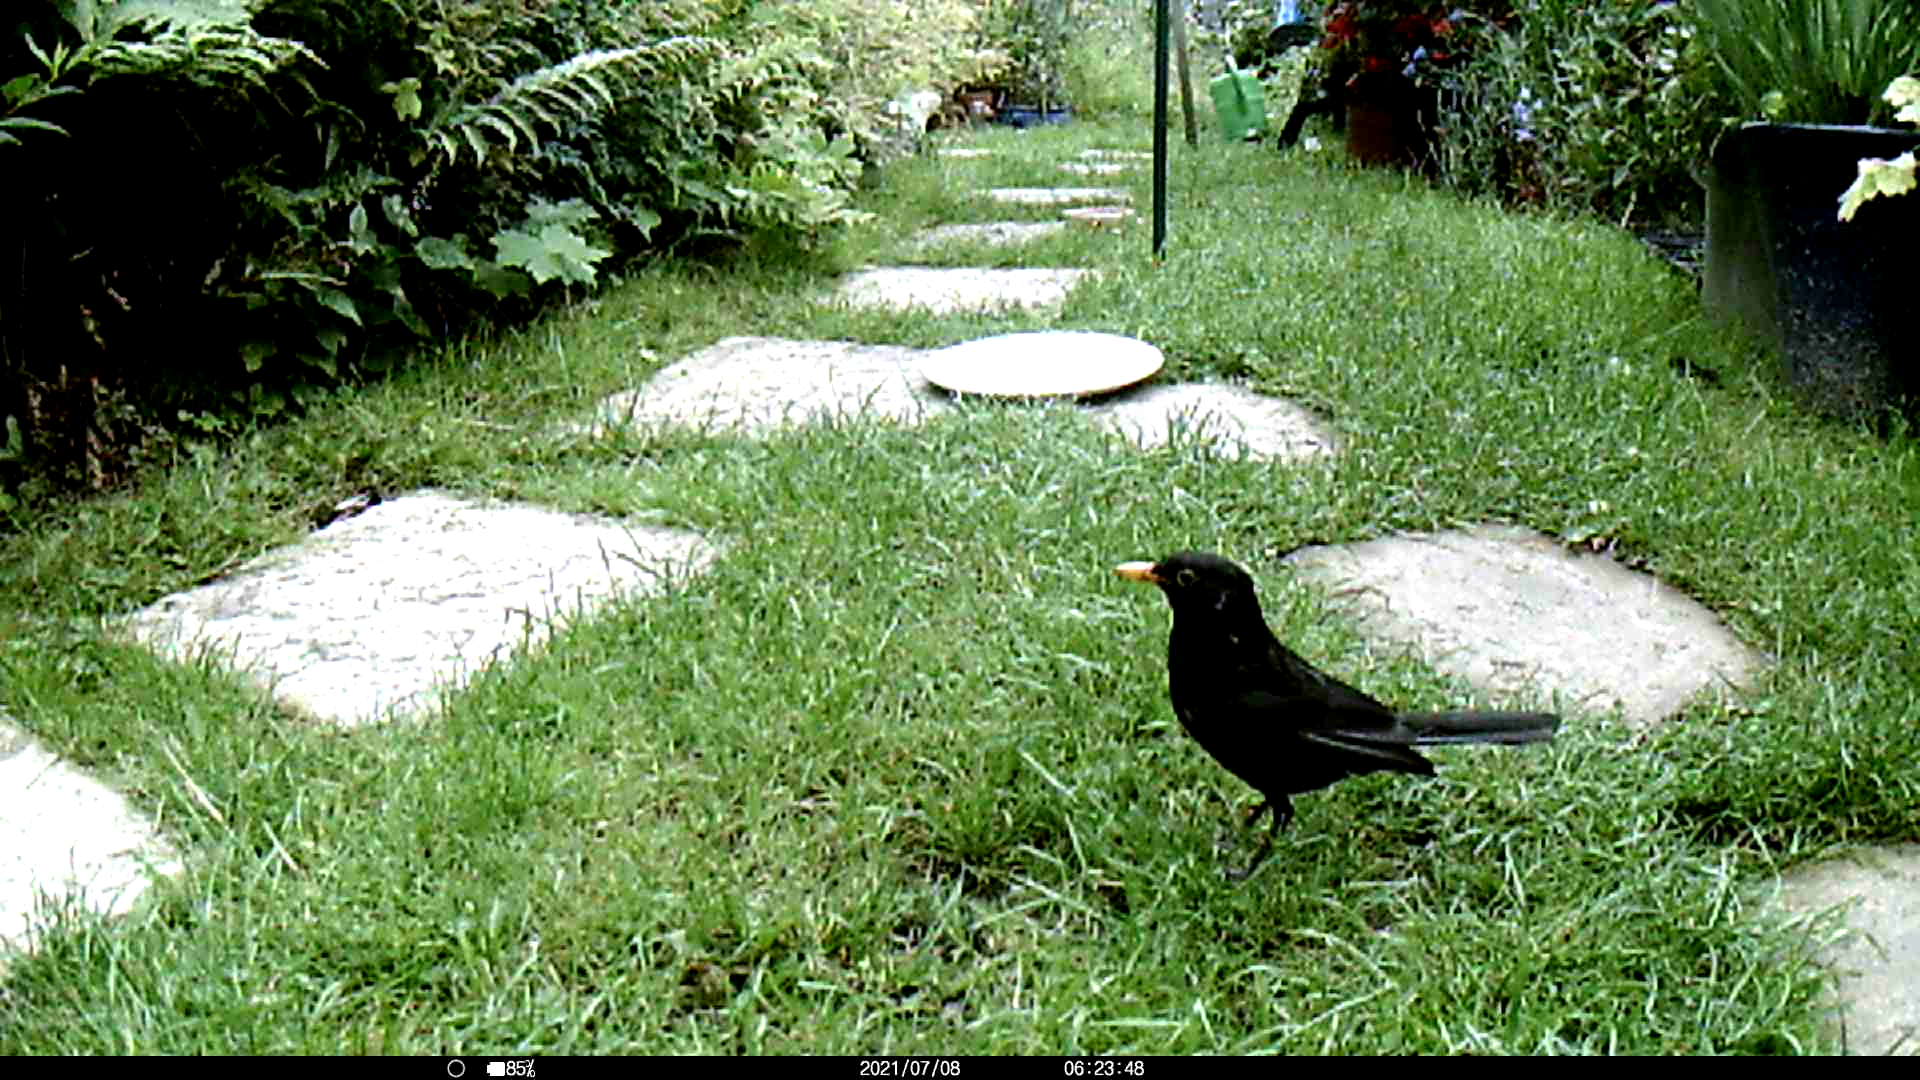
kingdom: Animalia
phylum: Chordata
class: Aves
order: Passeriformes
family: Turdidae
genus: Turdus
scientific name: Turdus merula
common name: Common blackbird
